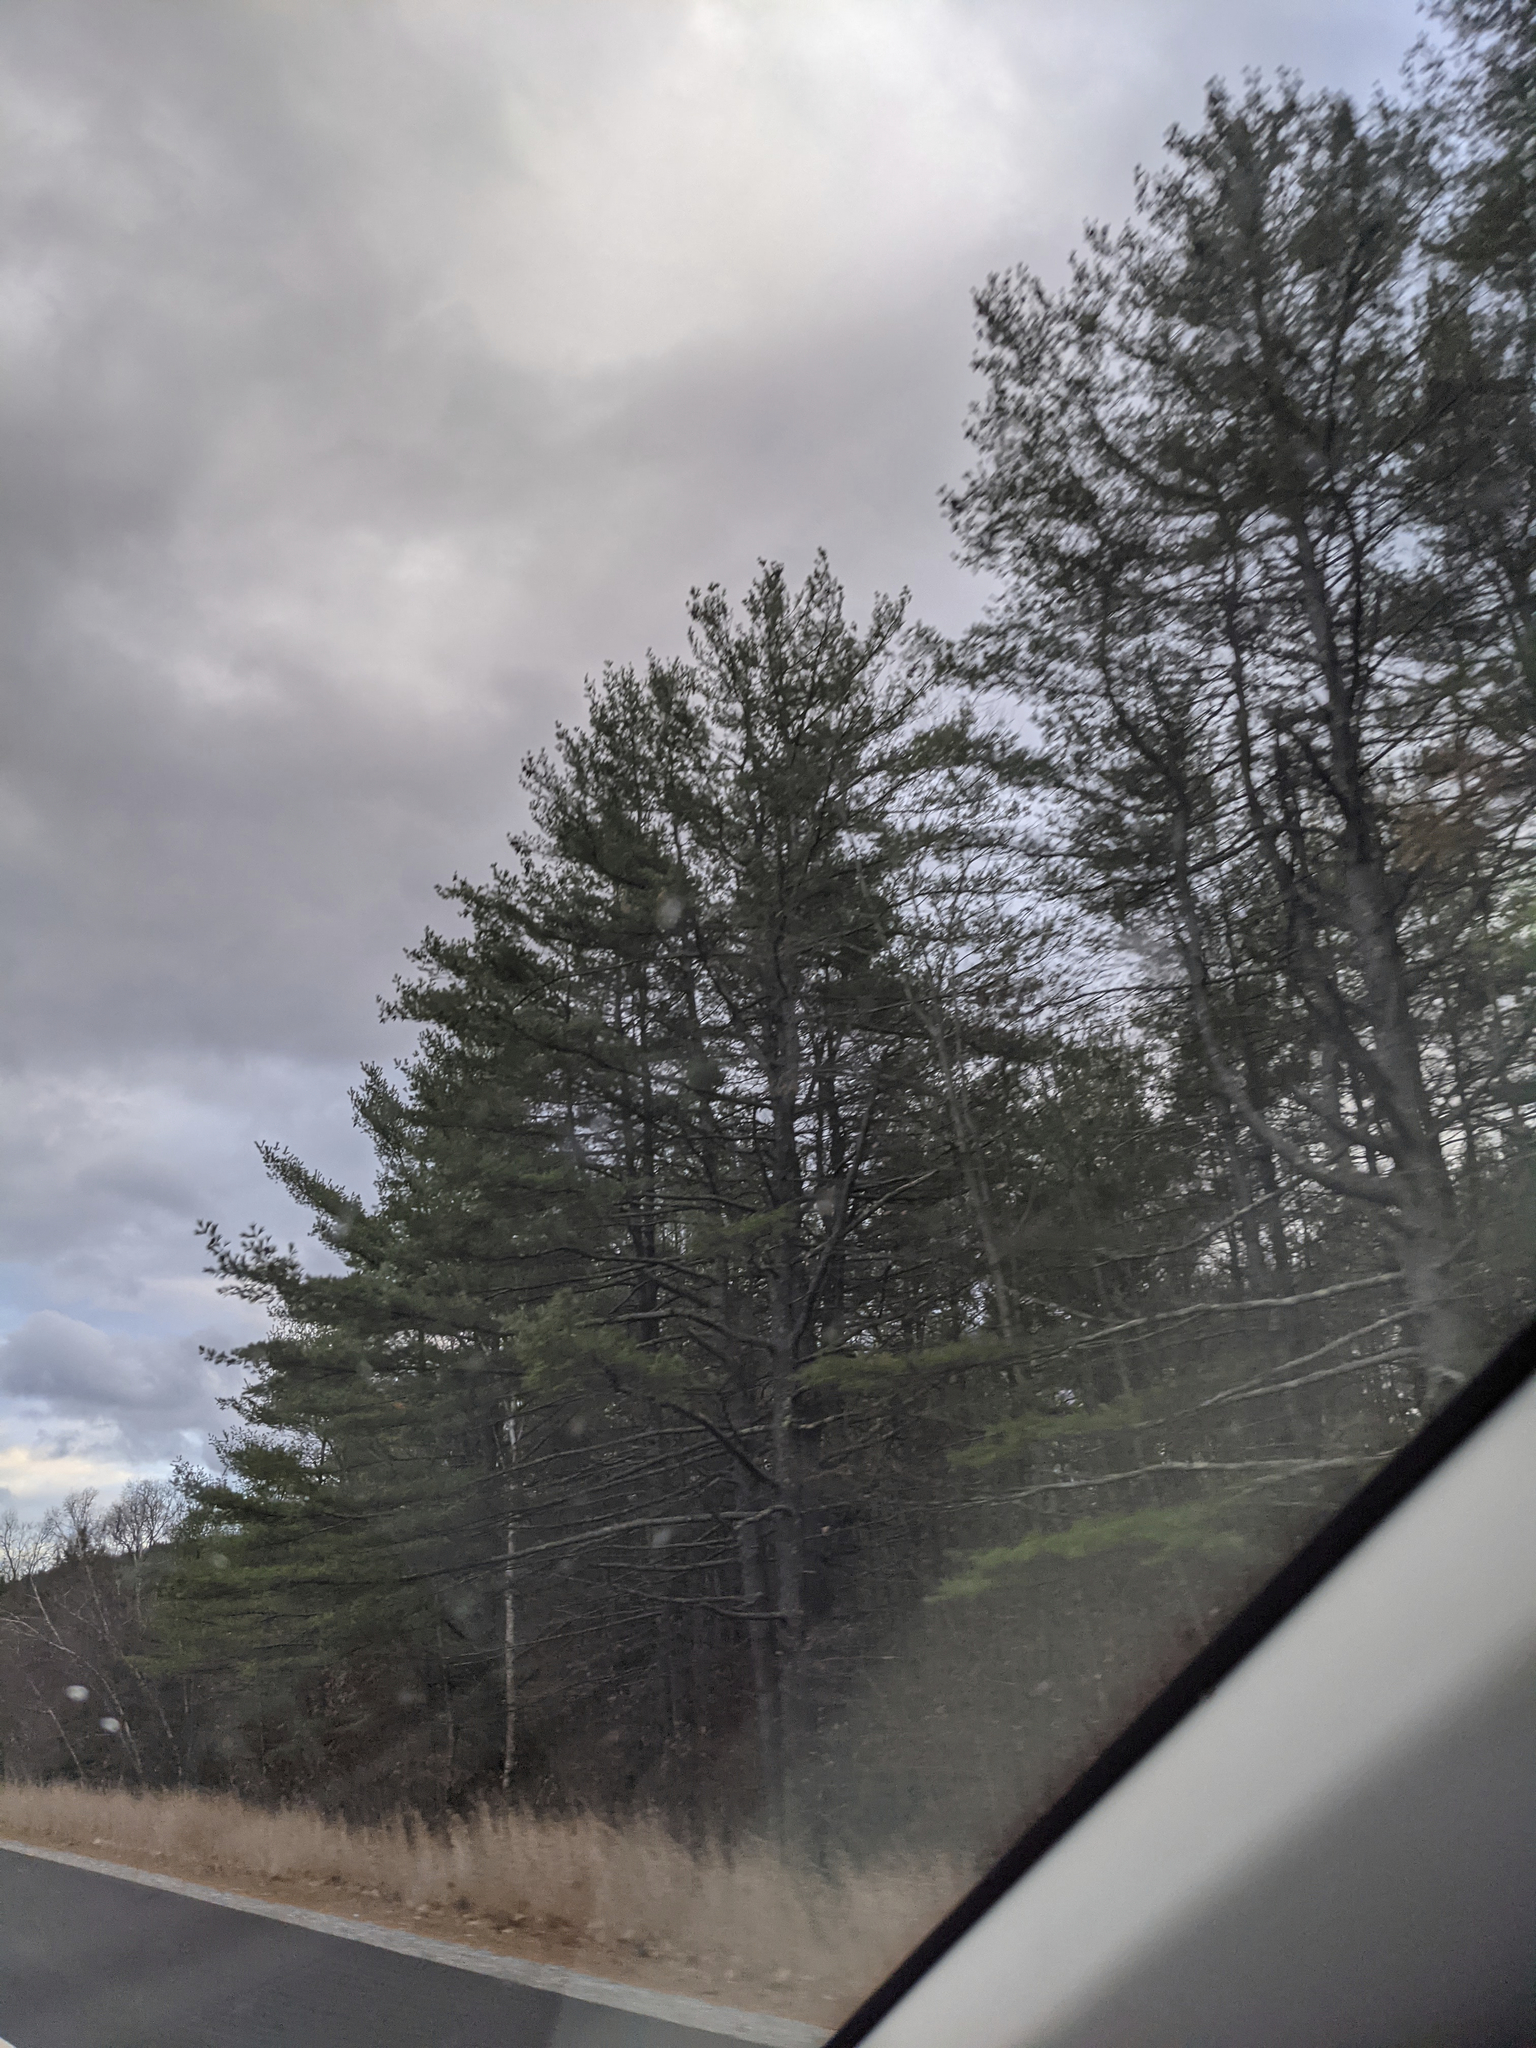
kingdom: Plantae
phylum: Tracheophyta
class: Pinopsida
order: Pinales
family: Pinaceae
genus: Pinus
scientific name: Pinus strobus
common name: Weymouth pine
